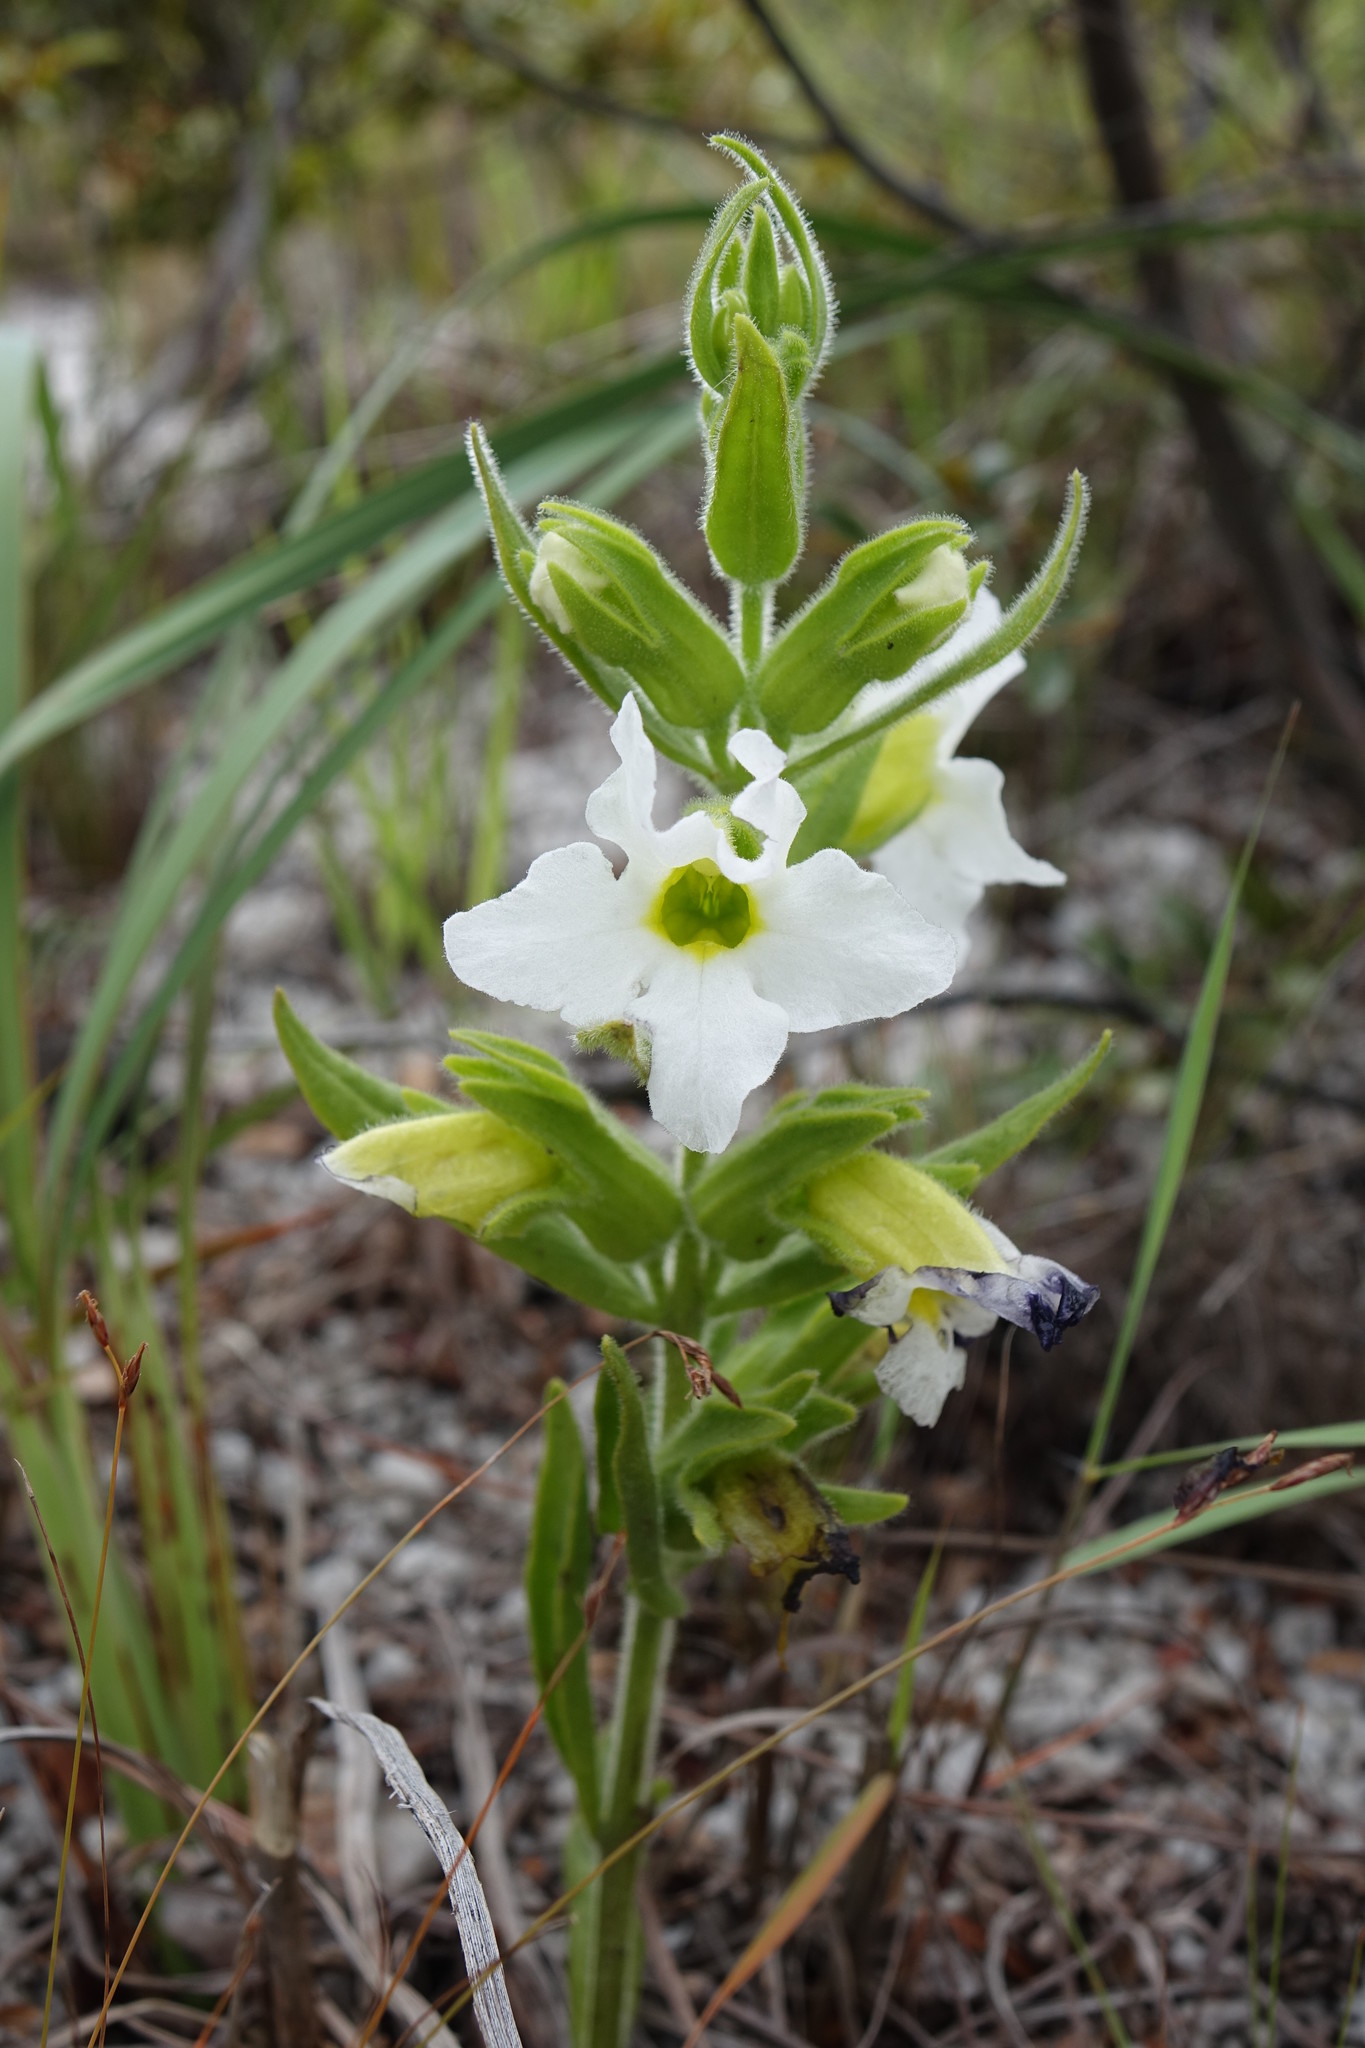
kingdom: Plantae
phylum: Tracheophyta
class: Magnoliopsida
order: Lamiales
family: Orobanchaceae
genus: Harveya
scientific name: Harveya obtusifolia
